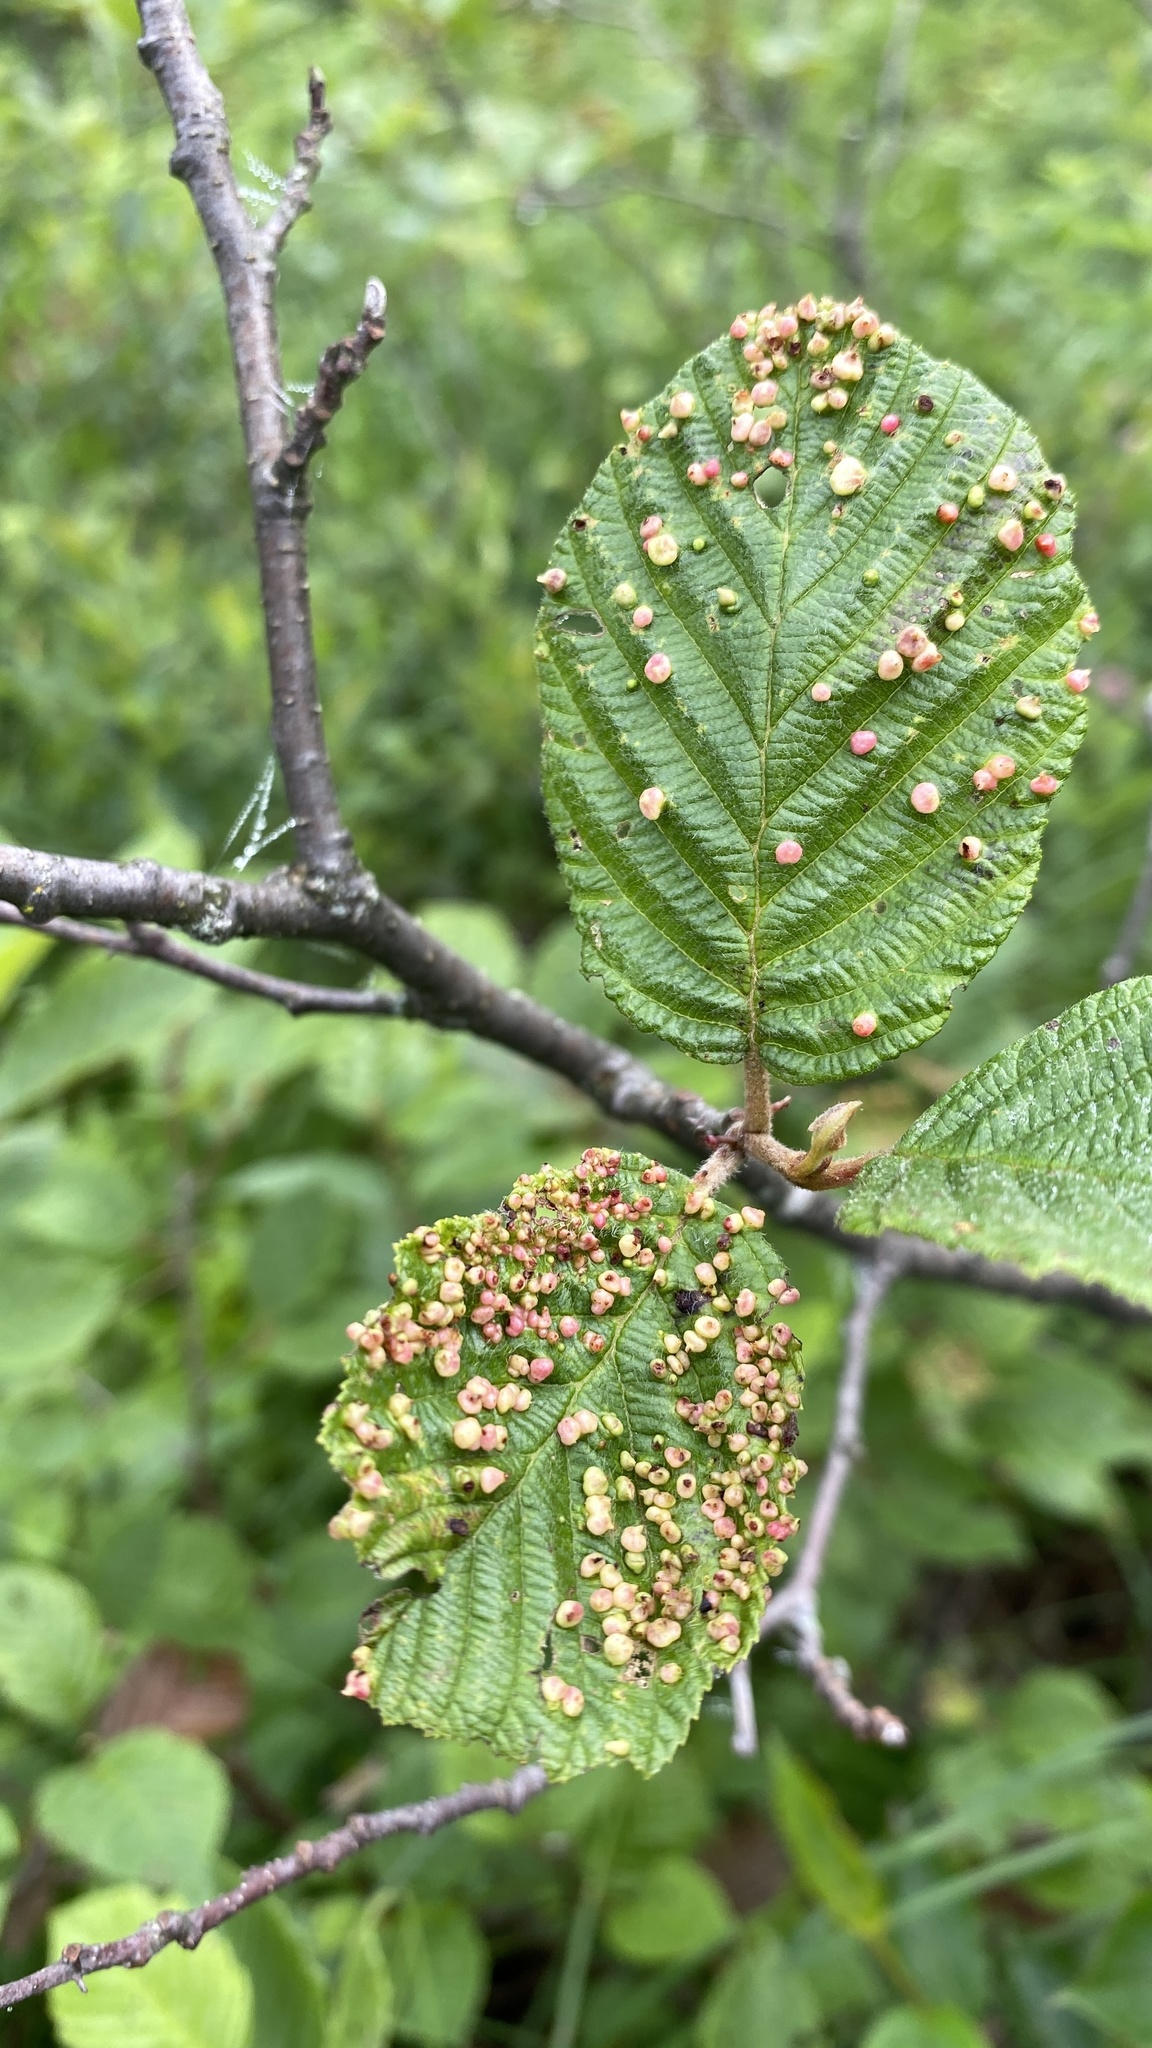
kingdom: Animalia
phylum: Arthropoda
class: Arachnida
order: Trombidiformes
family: Eriophyidae
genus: Eriophyes
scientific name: Eriophyes laevis
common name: Alder leaf gall mite
